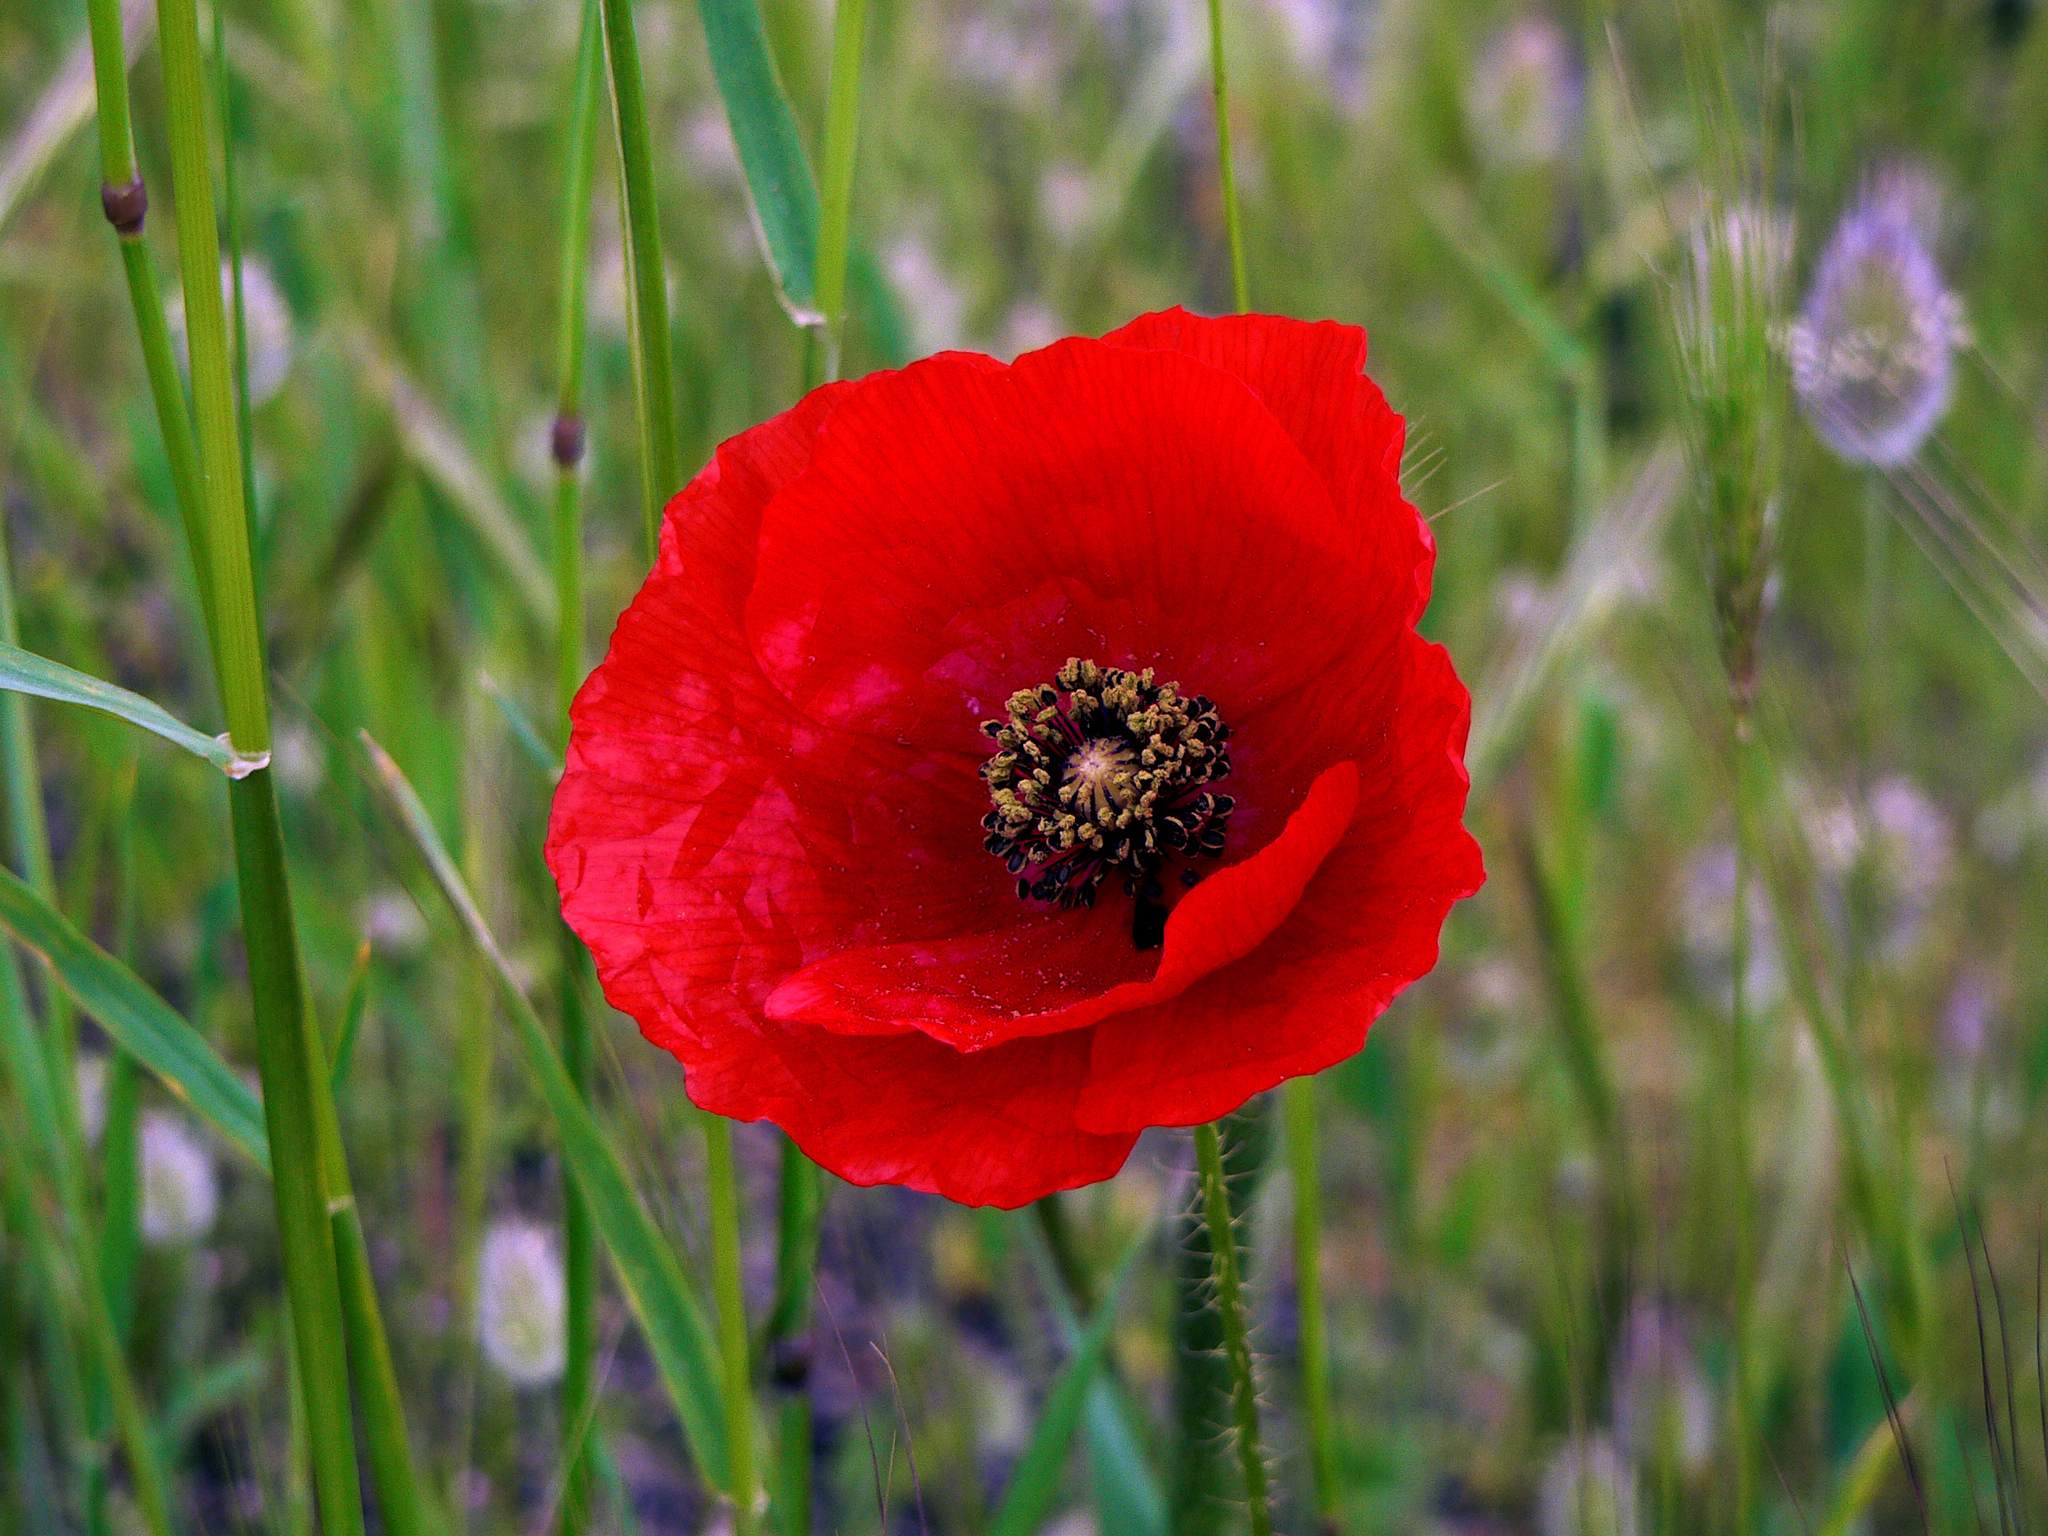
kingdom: Plantae
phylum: Tracheophyta
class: Magnoliopsida
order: Ranunculales
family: Papaveraceae
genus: Papaver
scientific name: Papaver rhoeas
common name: Corn poppy
